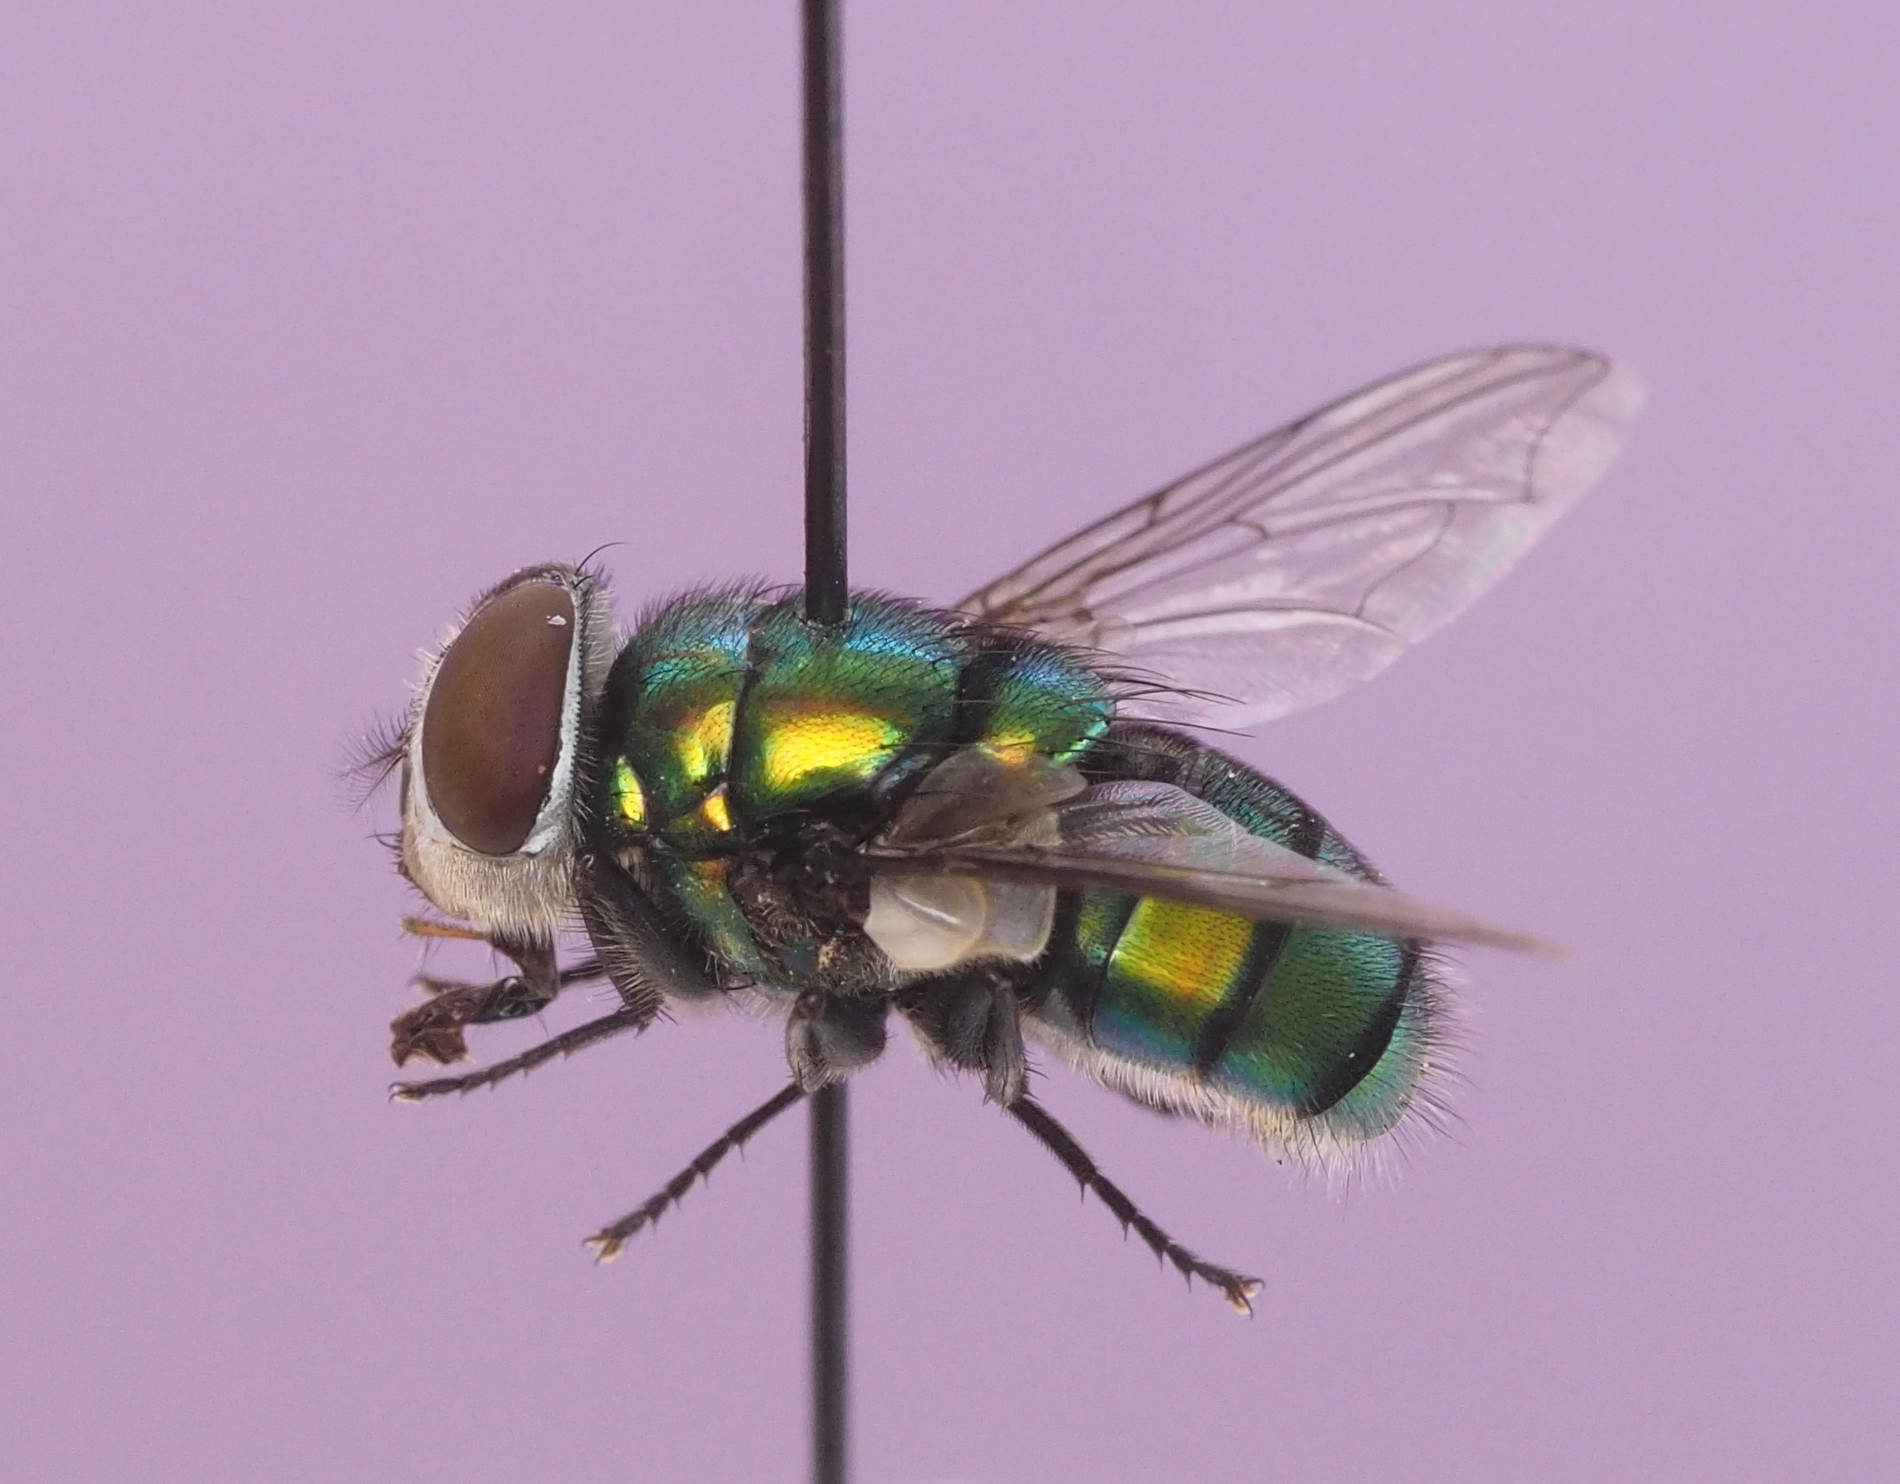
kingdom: Animalia
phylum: Arthropoda
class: Insecta
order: Diptera
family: Calliphoridae
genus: Chrysomya
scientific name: Chrysomya albiceps
